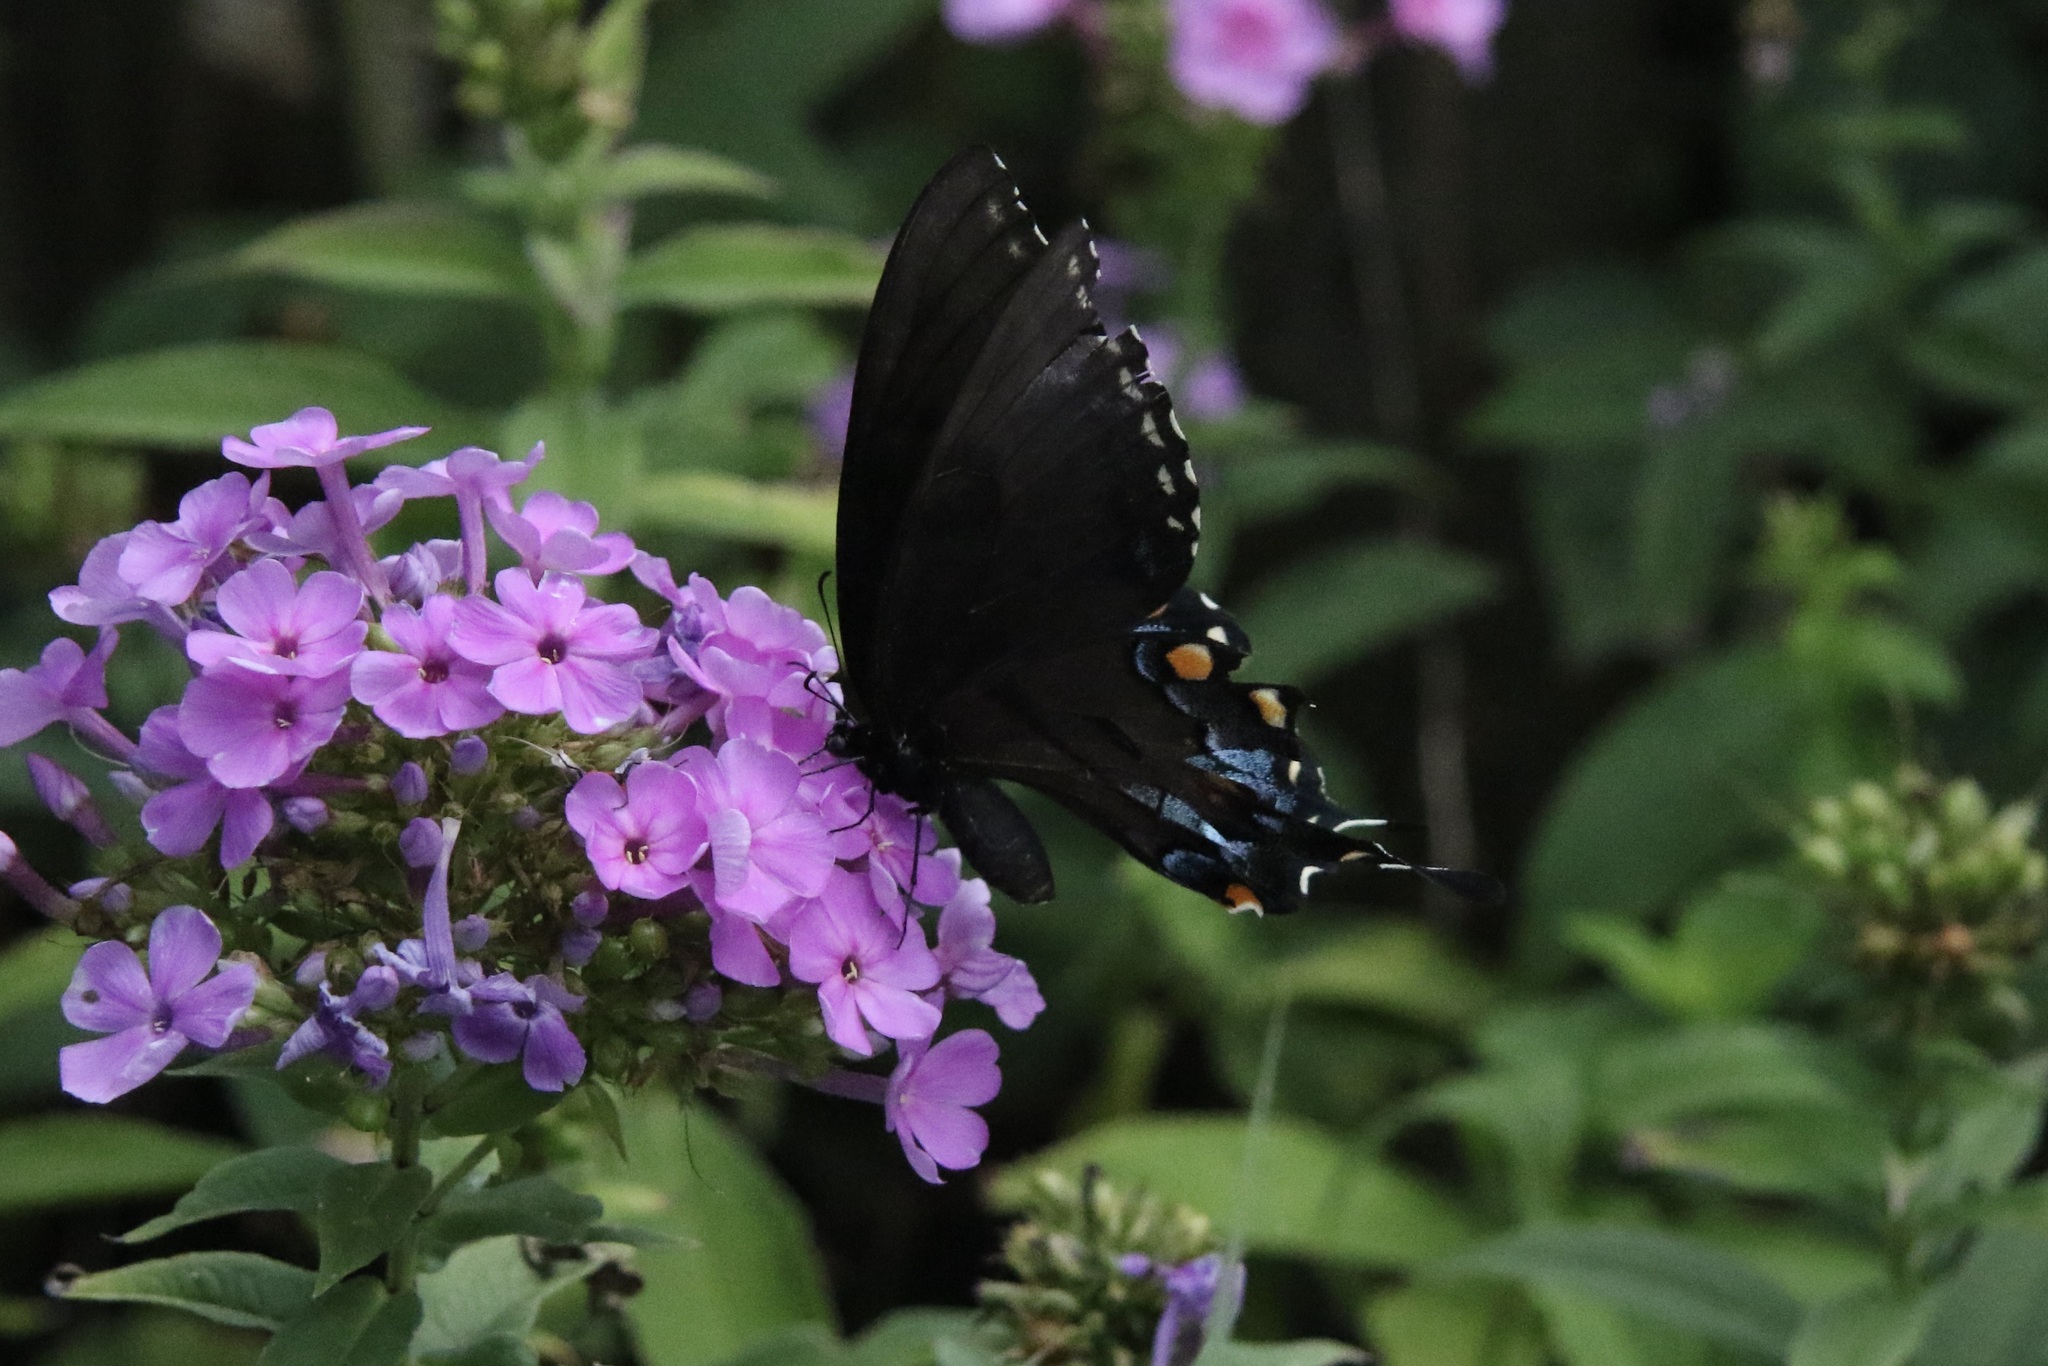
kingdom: Animalia
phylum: Arthropoda
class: Insecta
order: Lepidoptera
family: Papilionidae
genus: Papilio
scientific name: Papilio glaucus
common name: Tiger swallowtail
